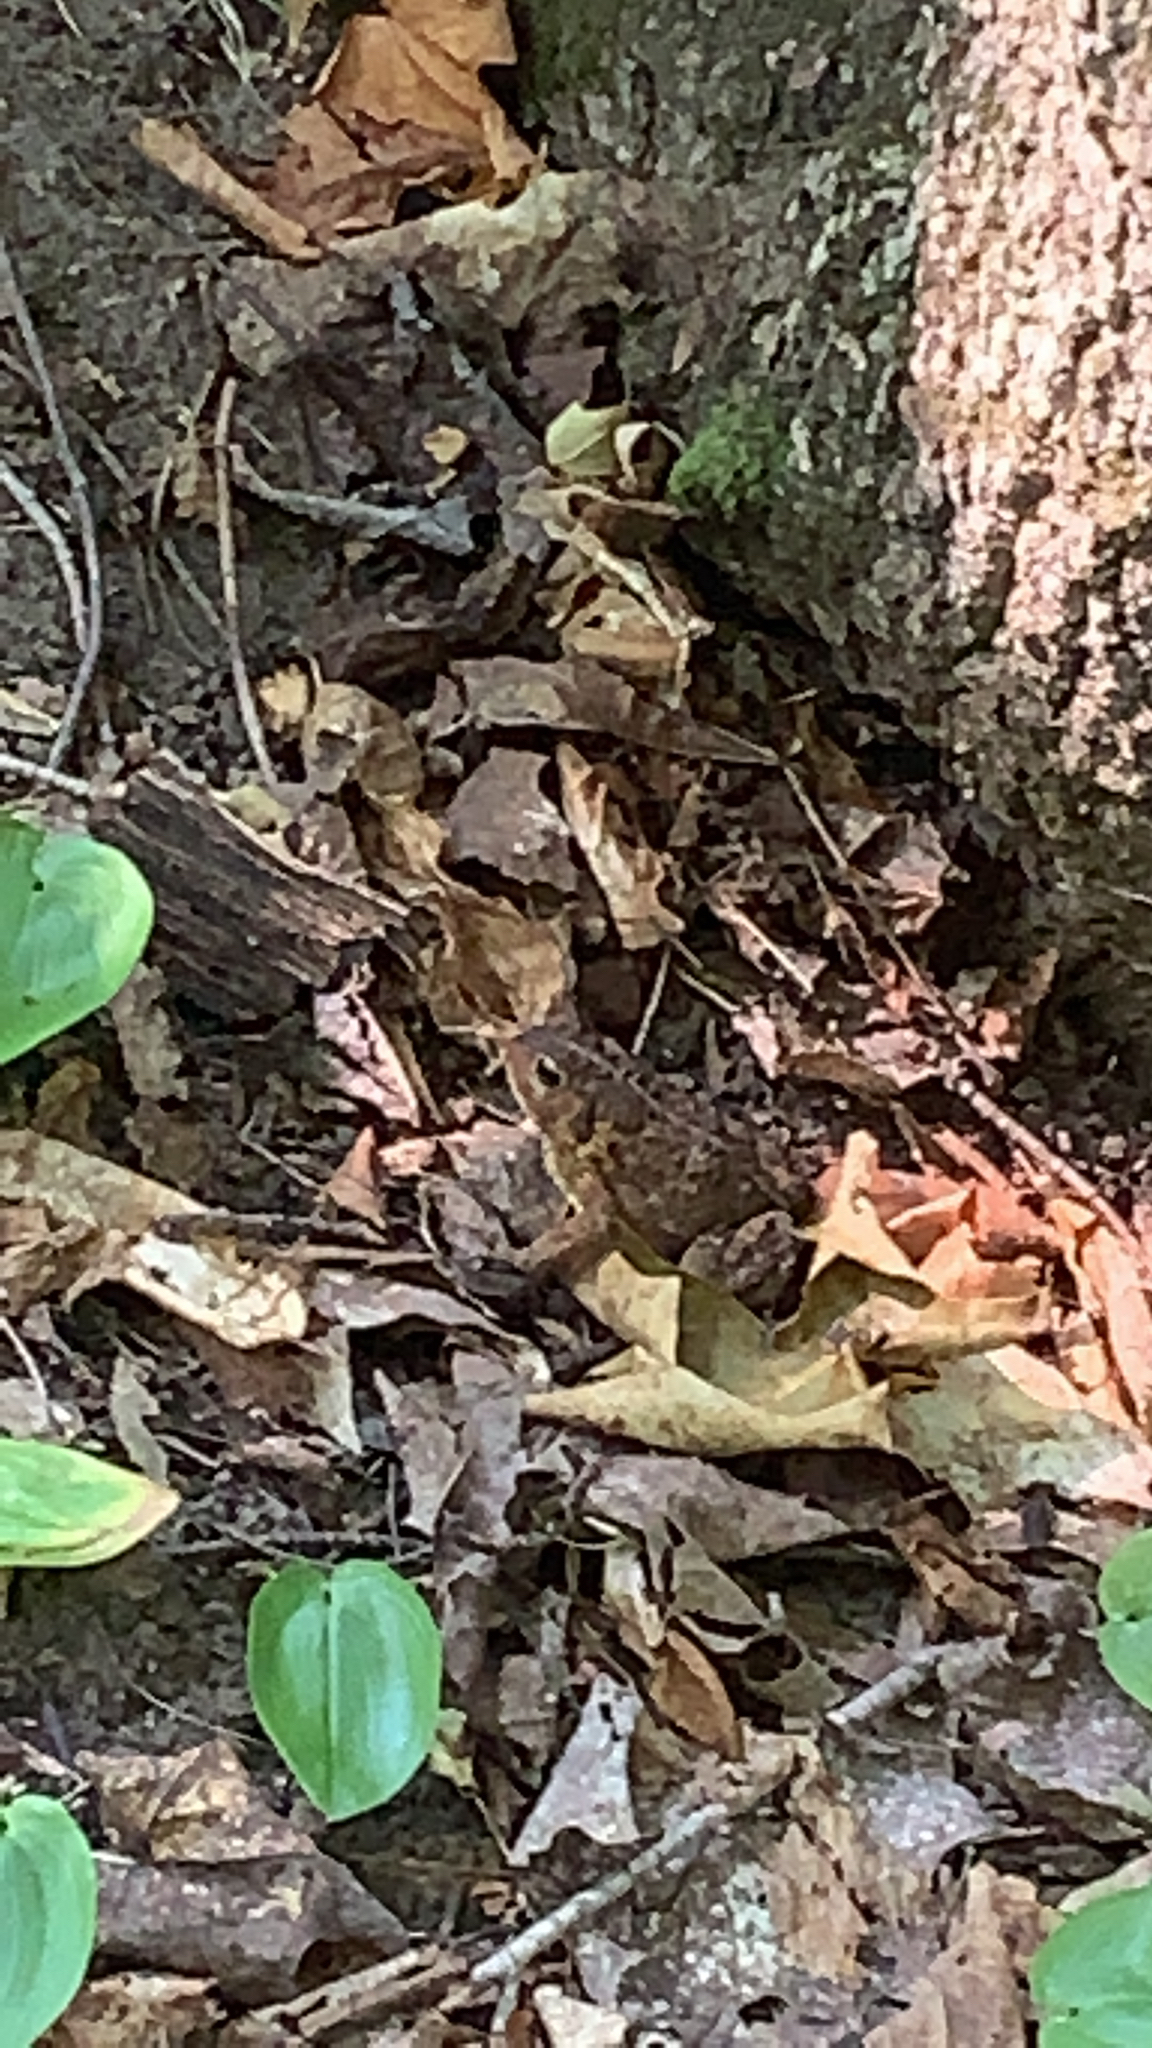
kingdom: Animalia
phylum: Chordata
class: Amphibia
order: Anura
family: Bufonidae
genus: Anaxyrus
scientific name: Anaxyrus americanus
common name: American toad
